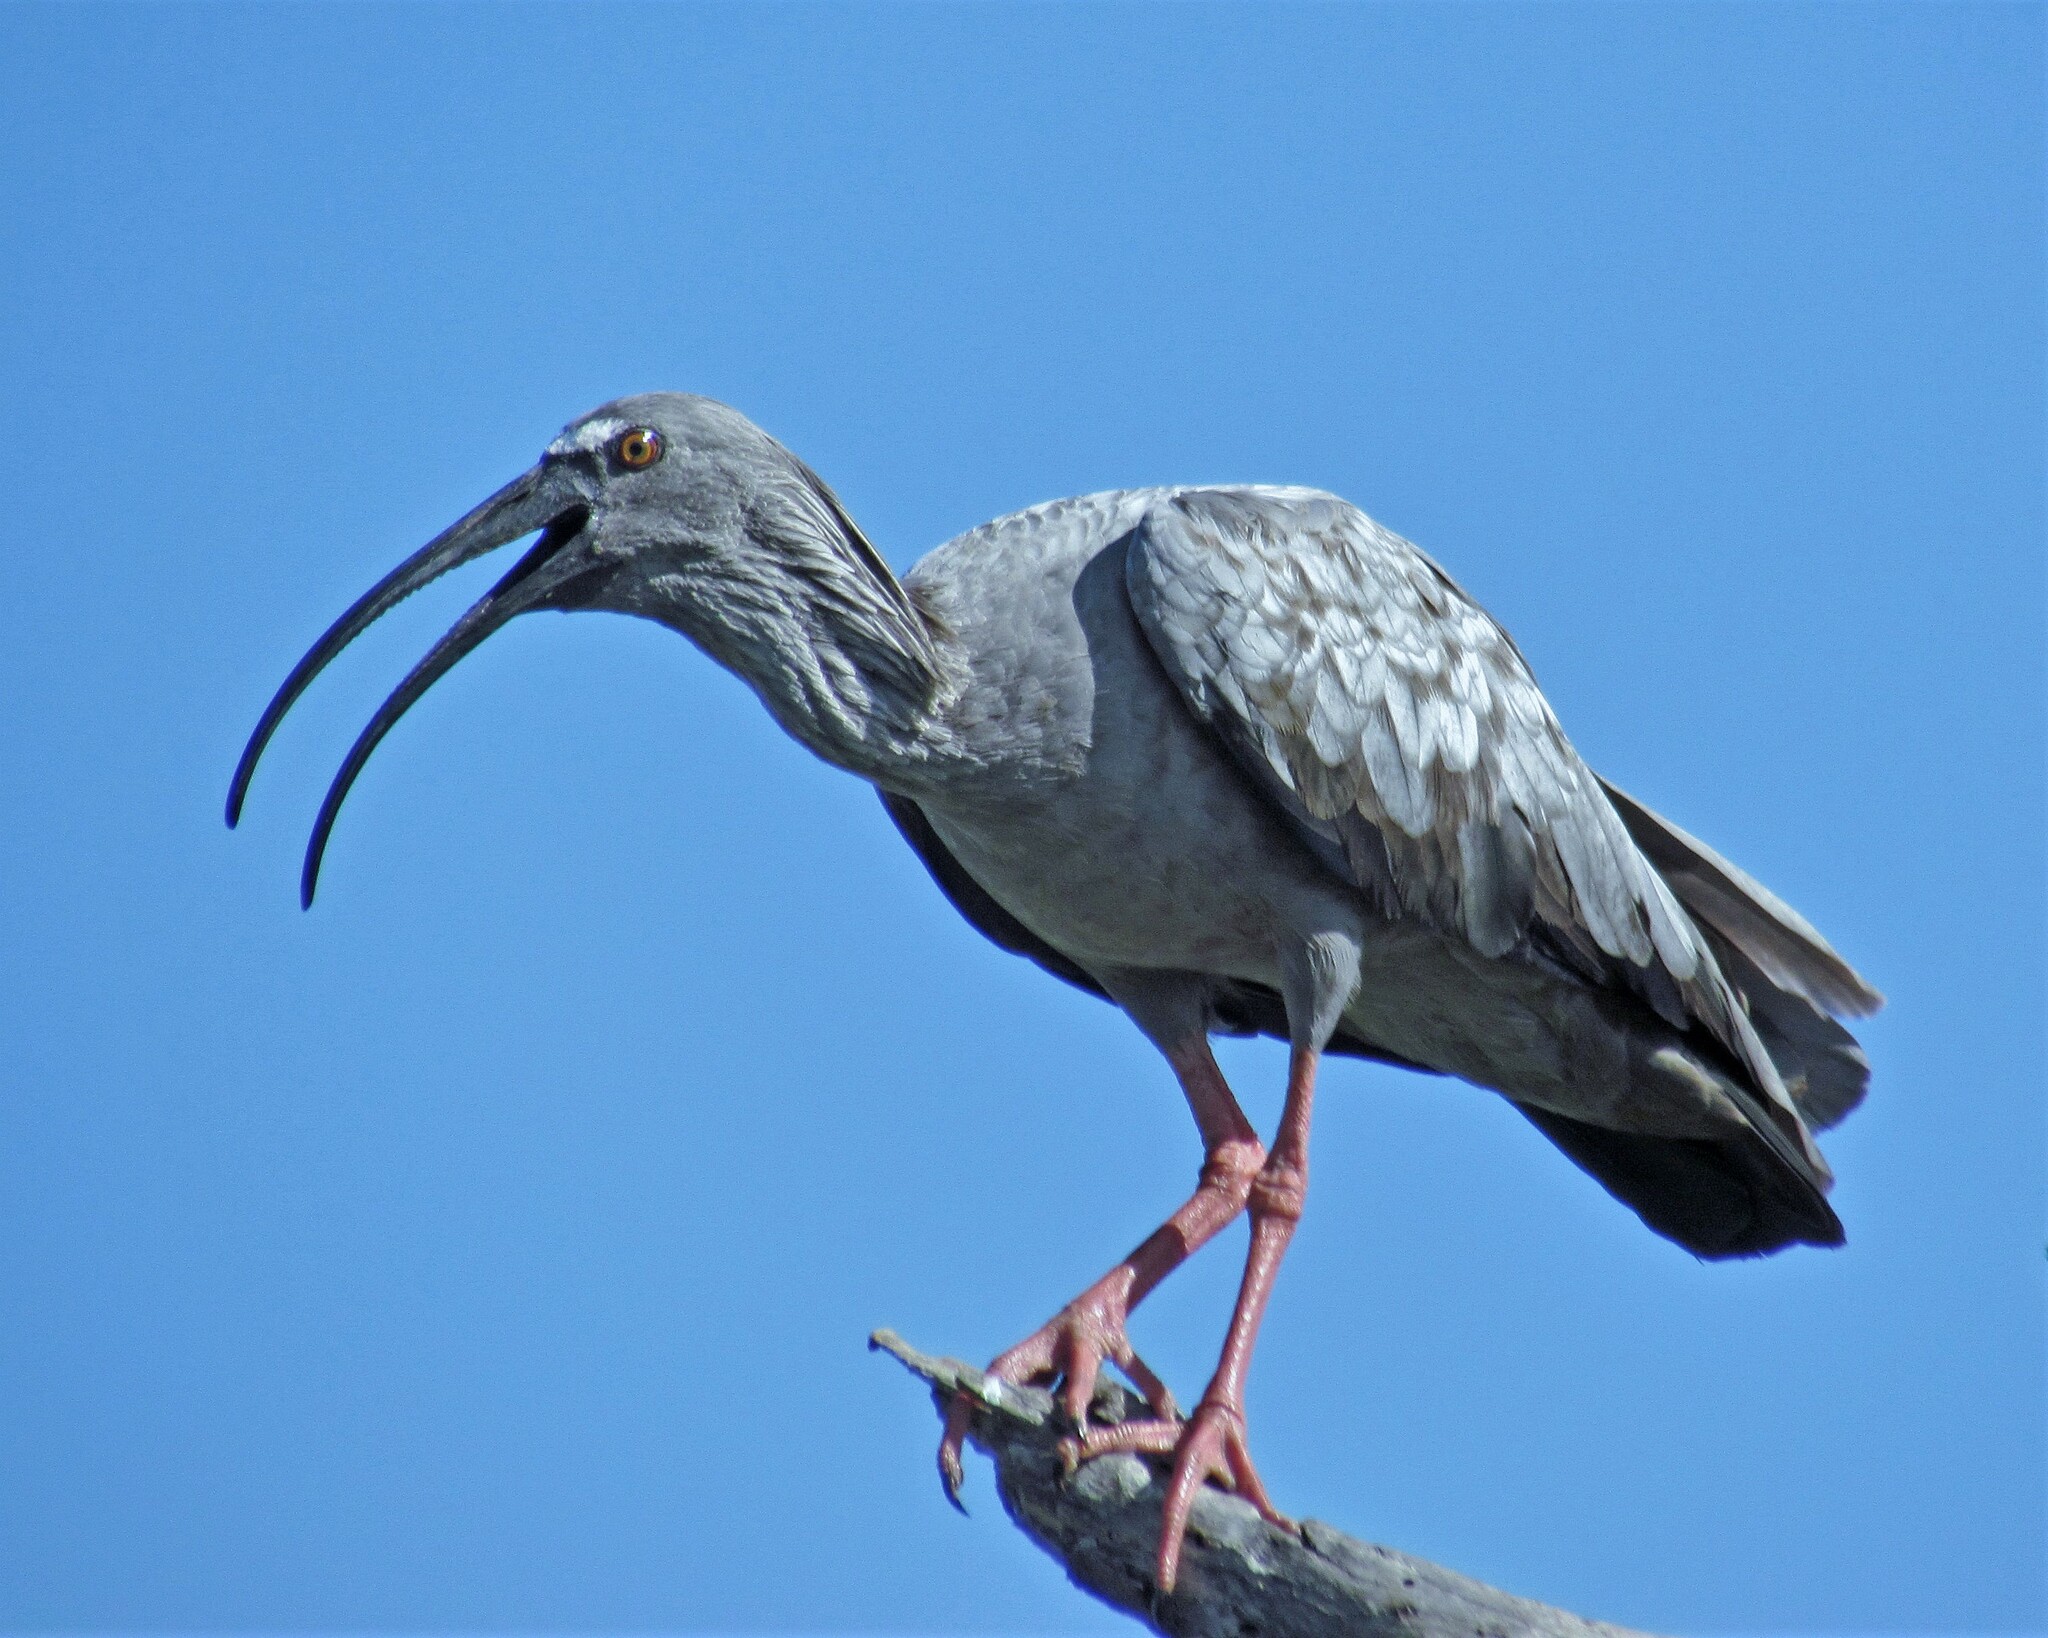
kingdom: Animalia
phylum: Chordata
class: Aves
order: Pelecaniformes
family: Threskiornithidae
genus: Theristicus
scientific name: Theristicus caerulescens
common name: Plumbeous ibis
